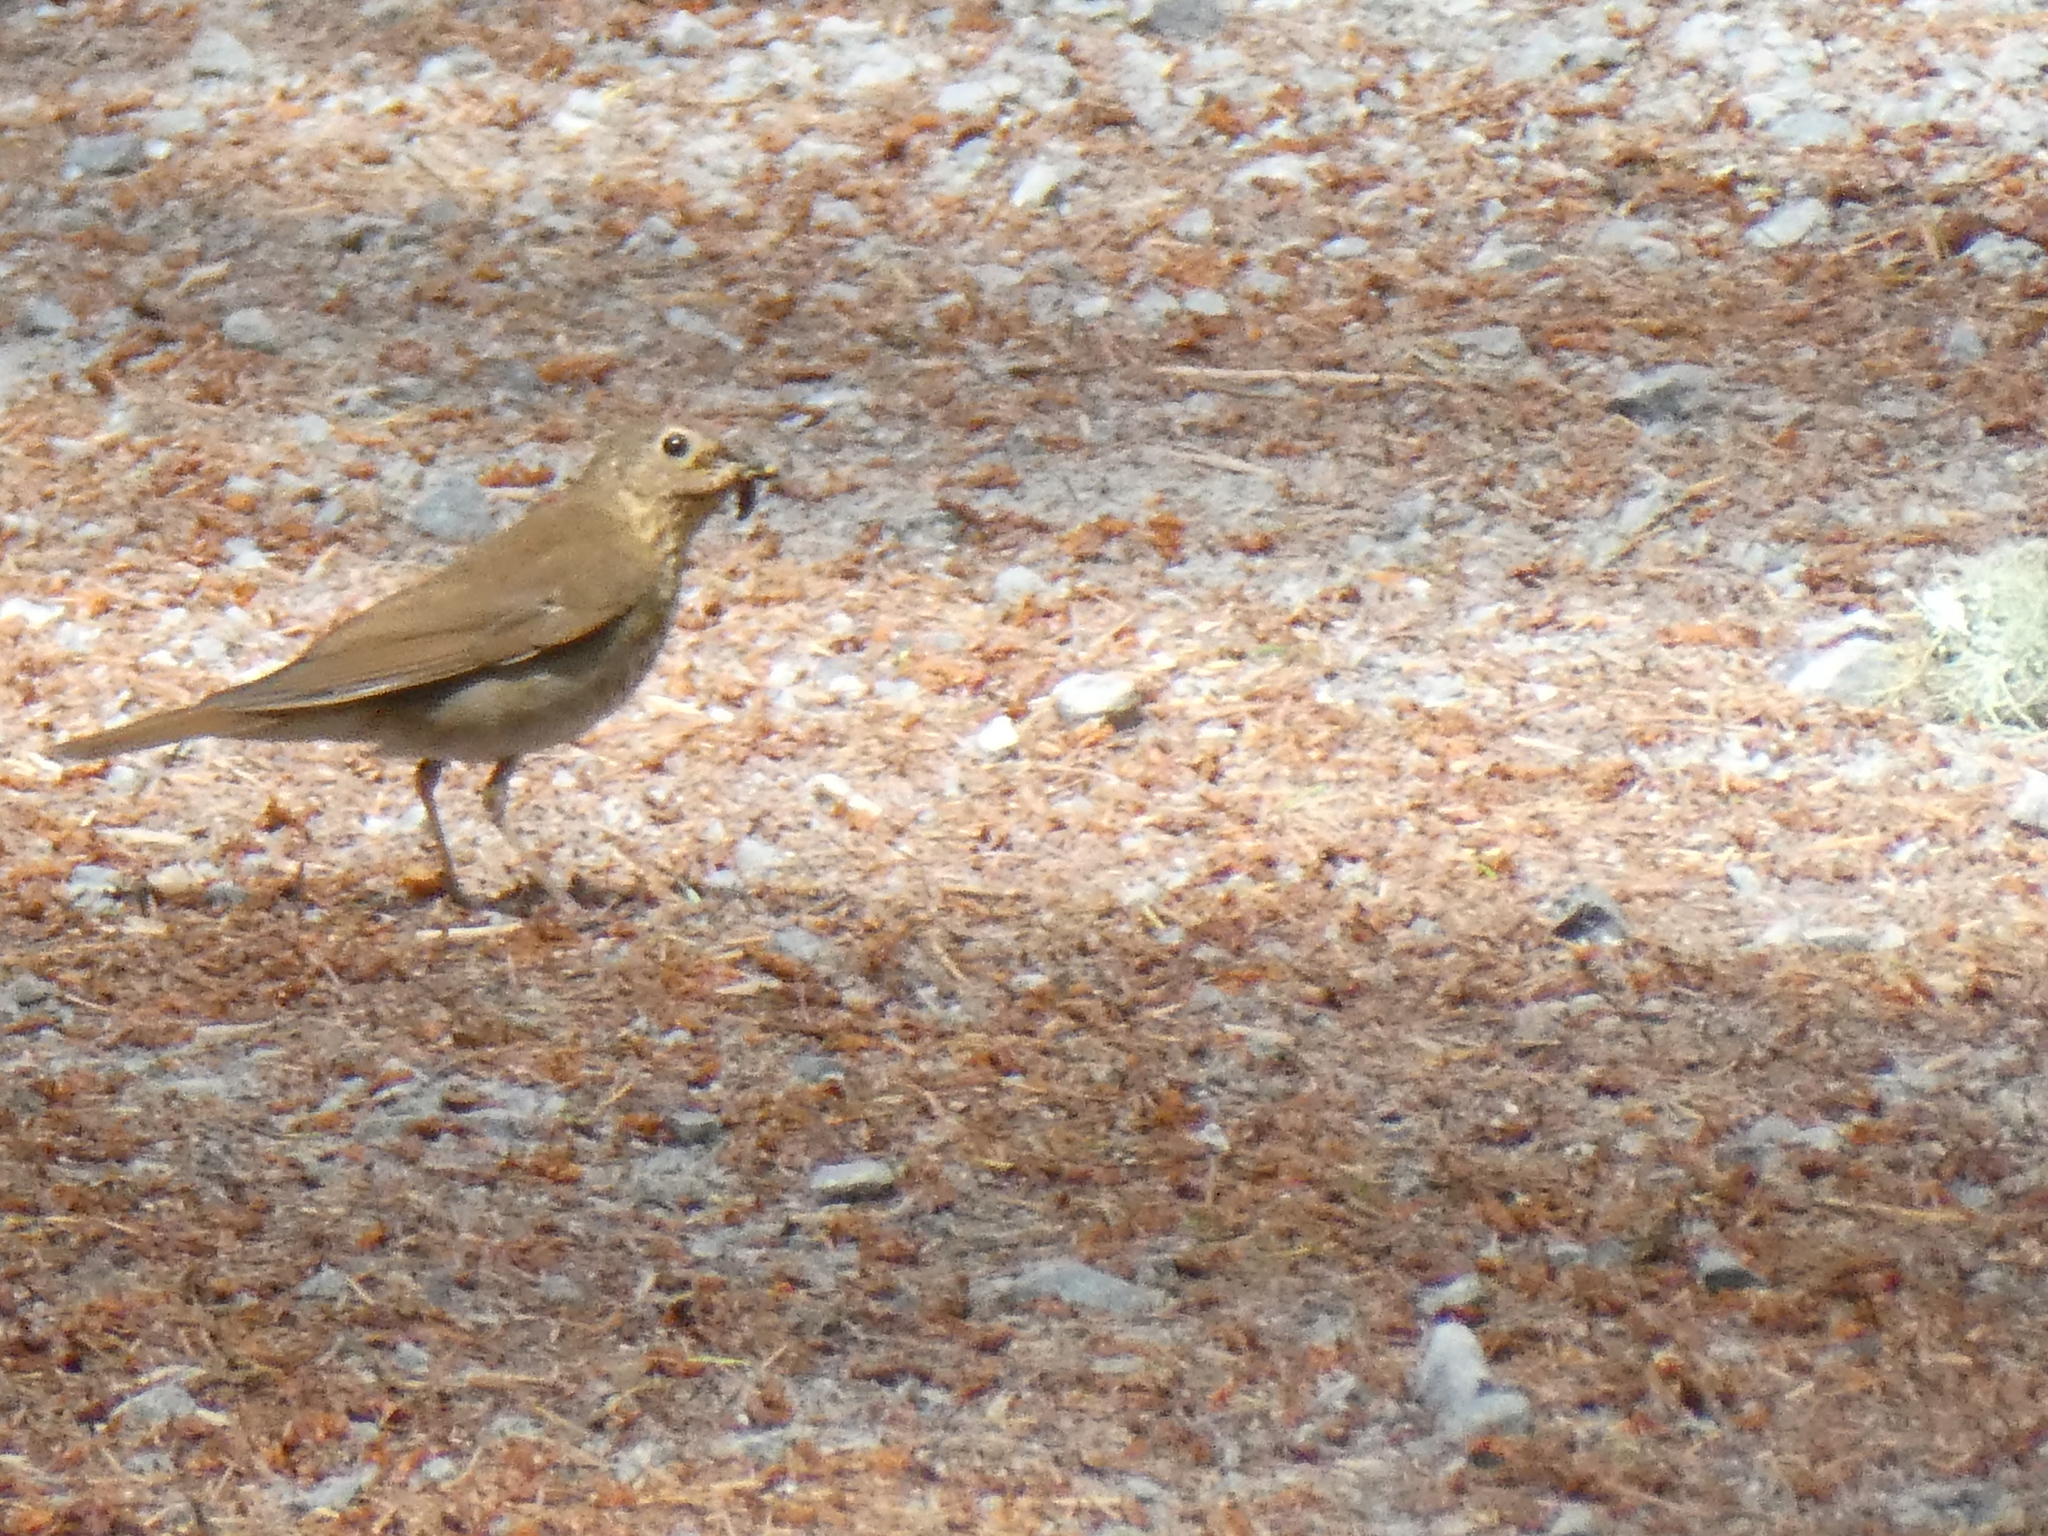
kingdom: Animalia
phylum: Chordata
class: Aves
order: Passeriformes
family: Turdidae
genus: Catharus
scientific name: Catharus ustulatus
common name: Swainson's thrush
